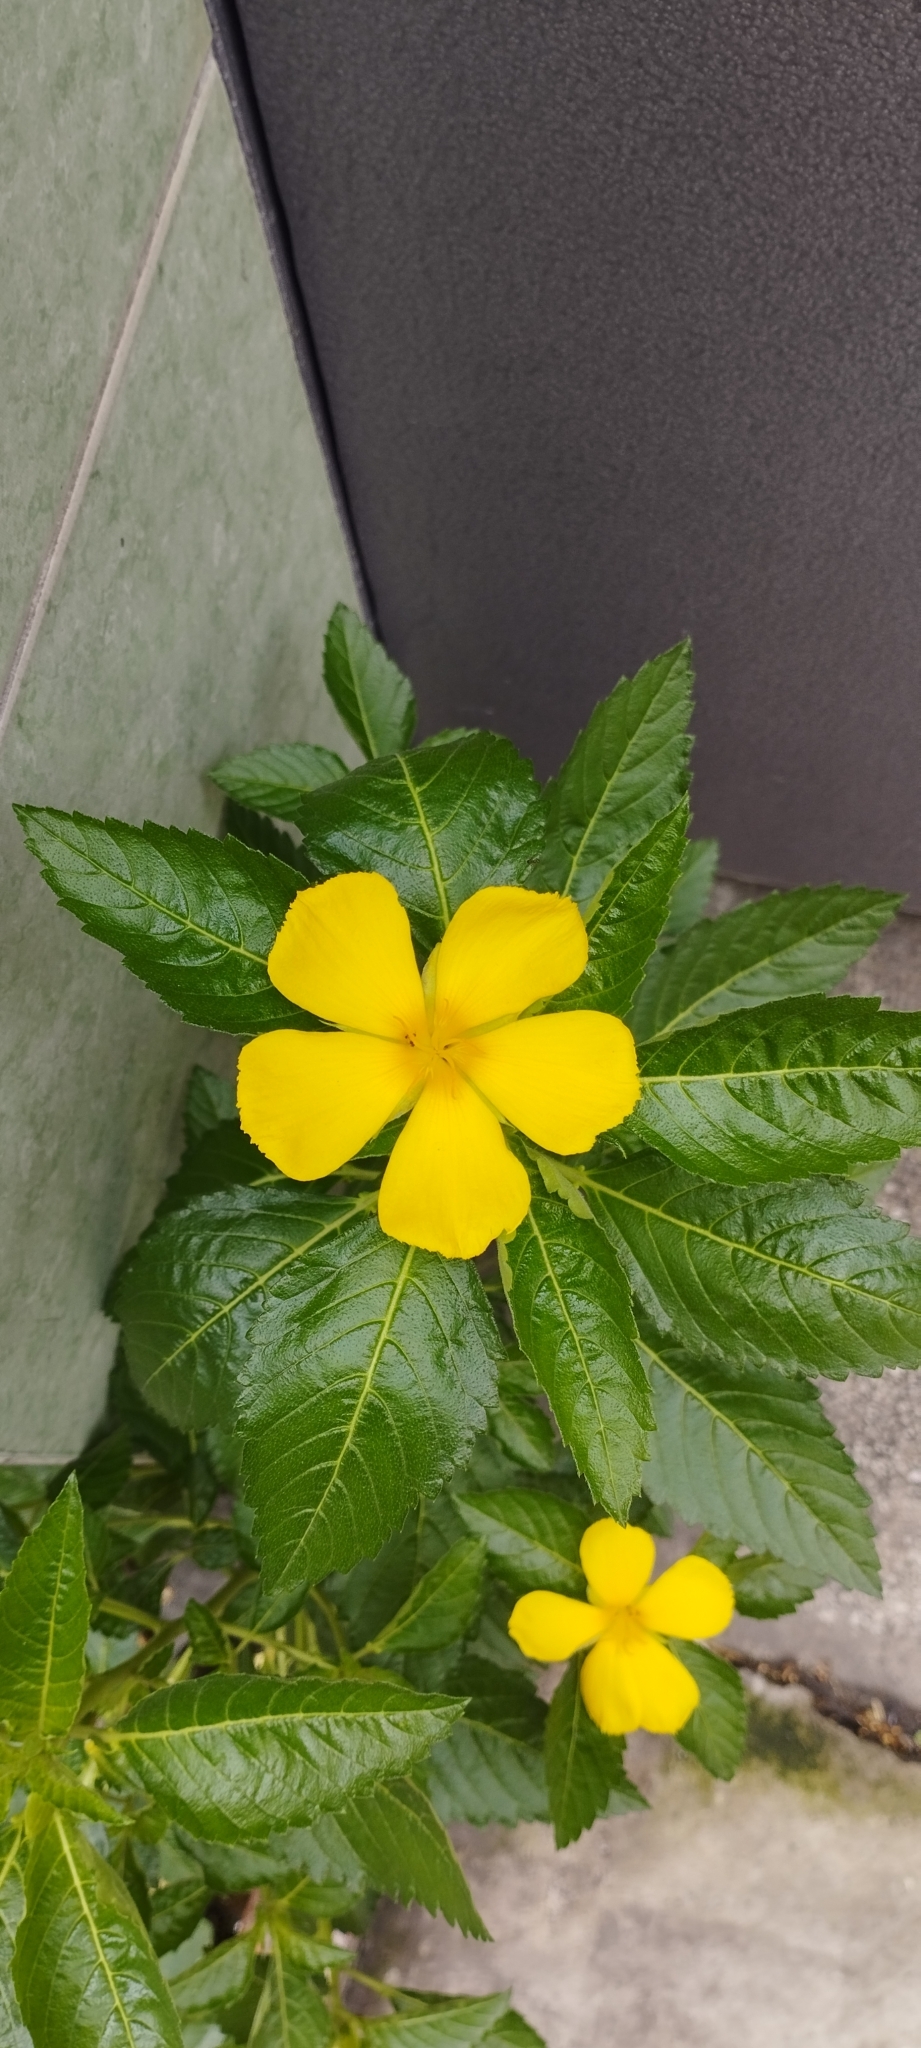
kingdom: Plantae
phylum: Tracheophyta
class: Magnoliopsida
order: Malpighiales
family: Turneraceae
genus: Turnera
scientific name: Turnera ulmifolia
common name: Ramgoat dashalong
